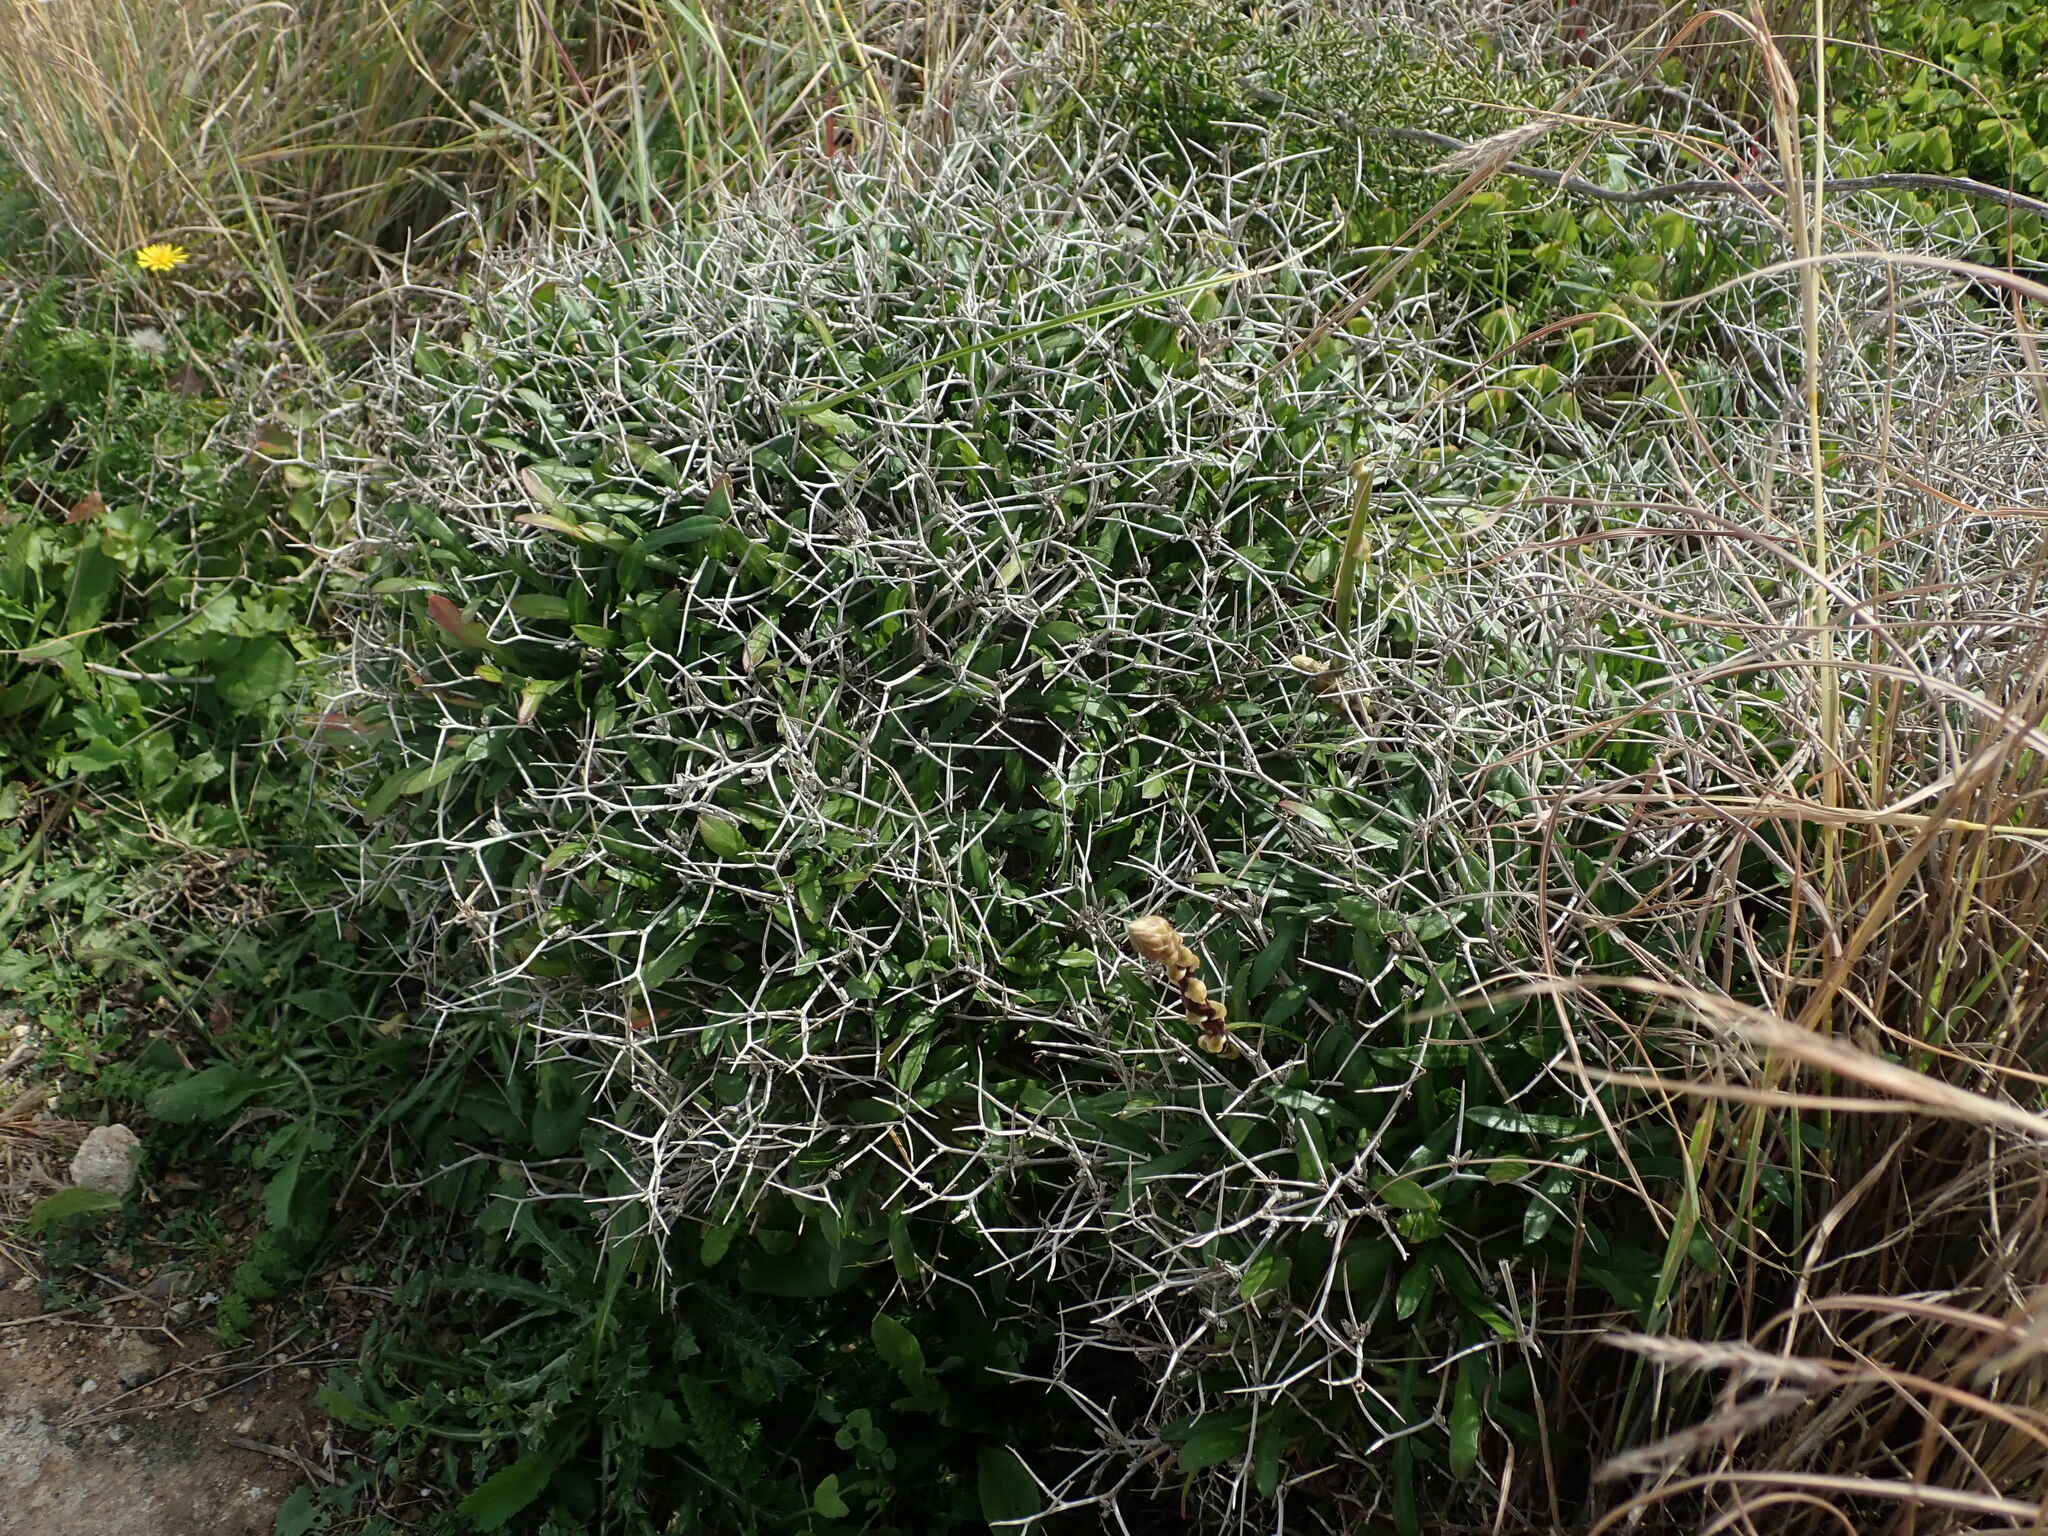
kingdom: Plantae
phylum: Tracheophyta
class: Magnoliopsida
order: Asterales
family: Asteraceae
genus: Cichorium
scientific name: Cichorium spinosum
